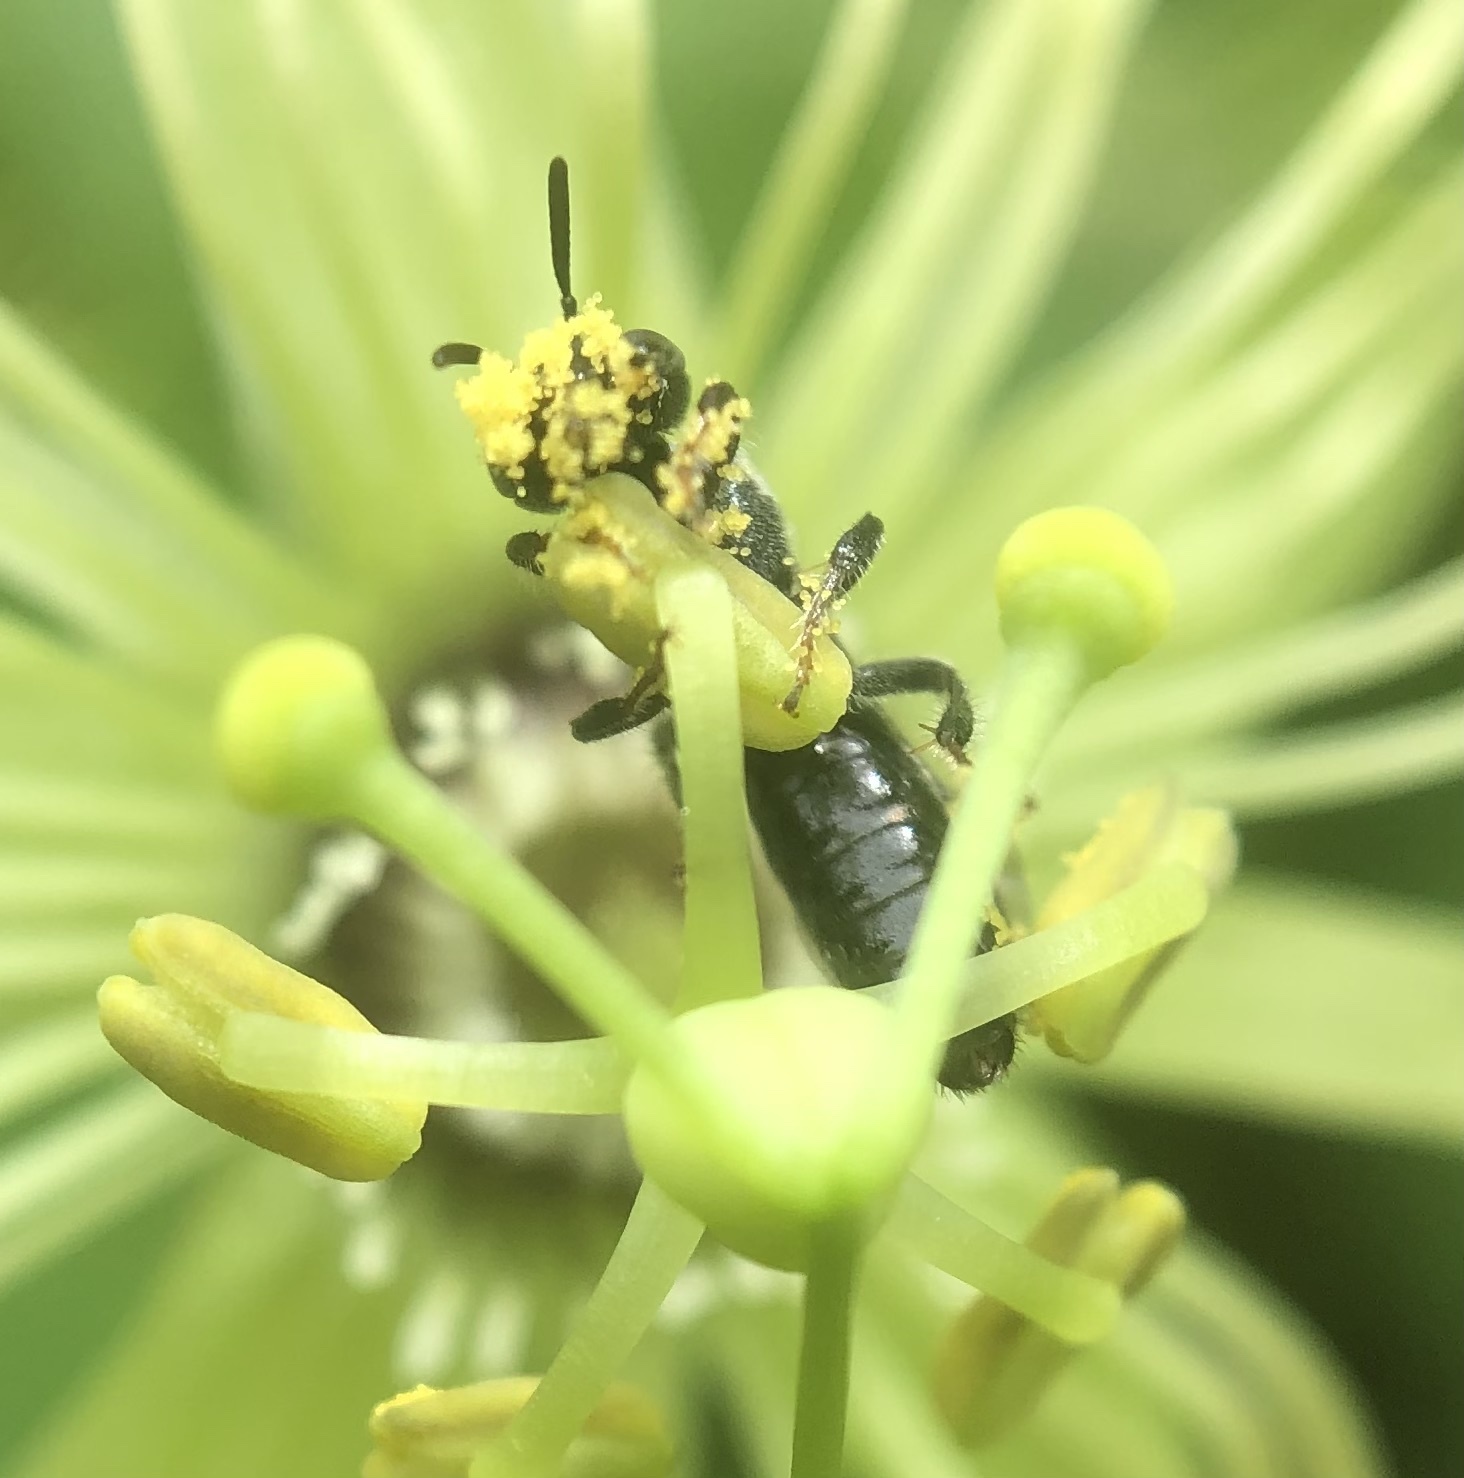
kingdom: Animalia
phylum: Arthropoda
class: Insecta
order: Hymenoptera
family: Andrenidae
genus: Protandrena
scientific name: Protandrena
